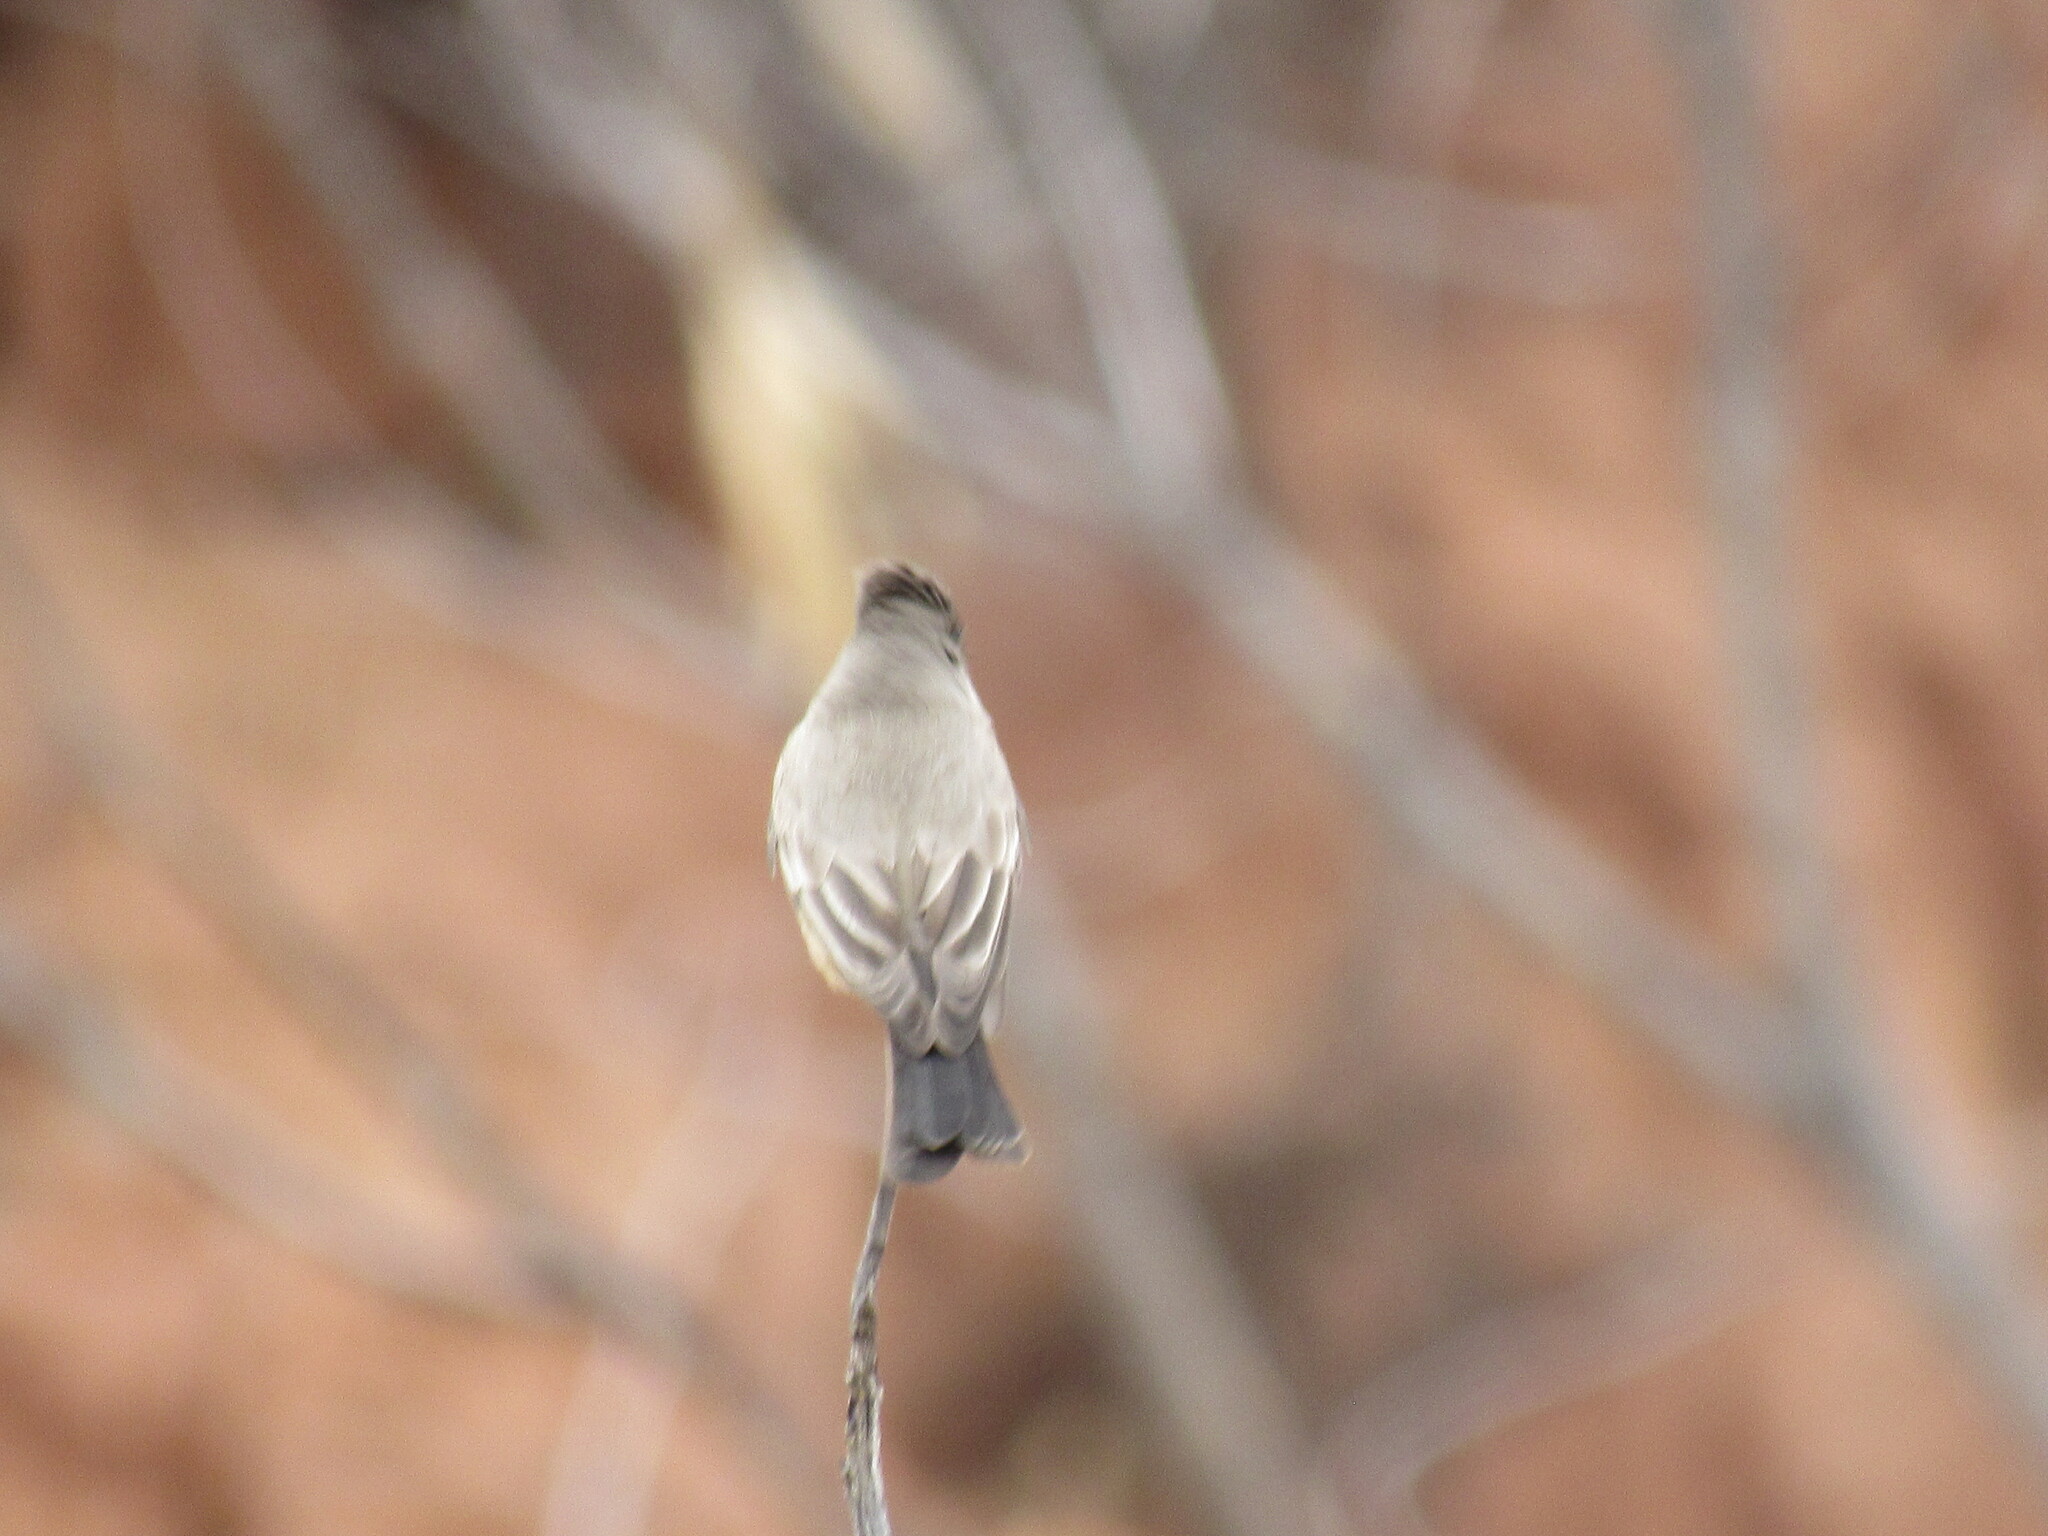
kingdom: Animalia
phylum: Chordata
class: Aves
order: Passeriformes
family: Tyrannidae
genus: Sayornis
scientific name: Sayornis saya
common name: Say's phoebe
